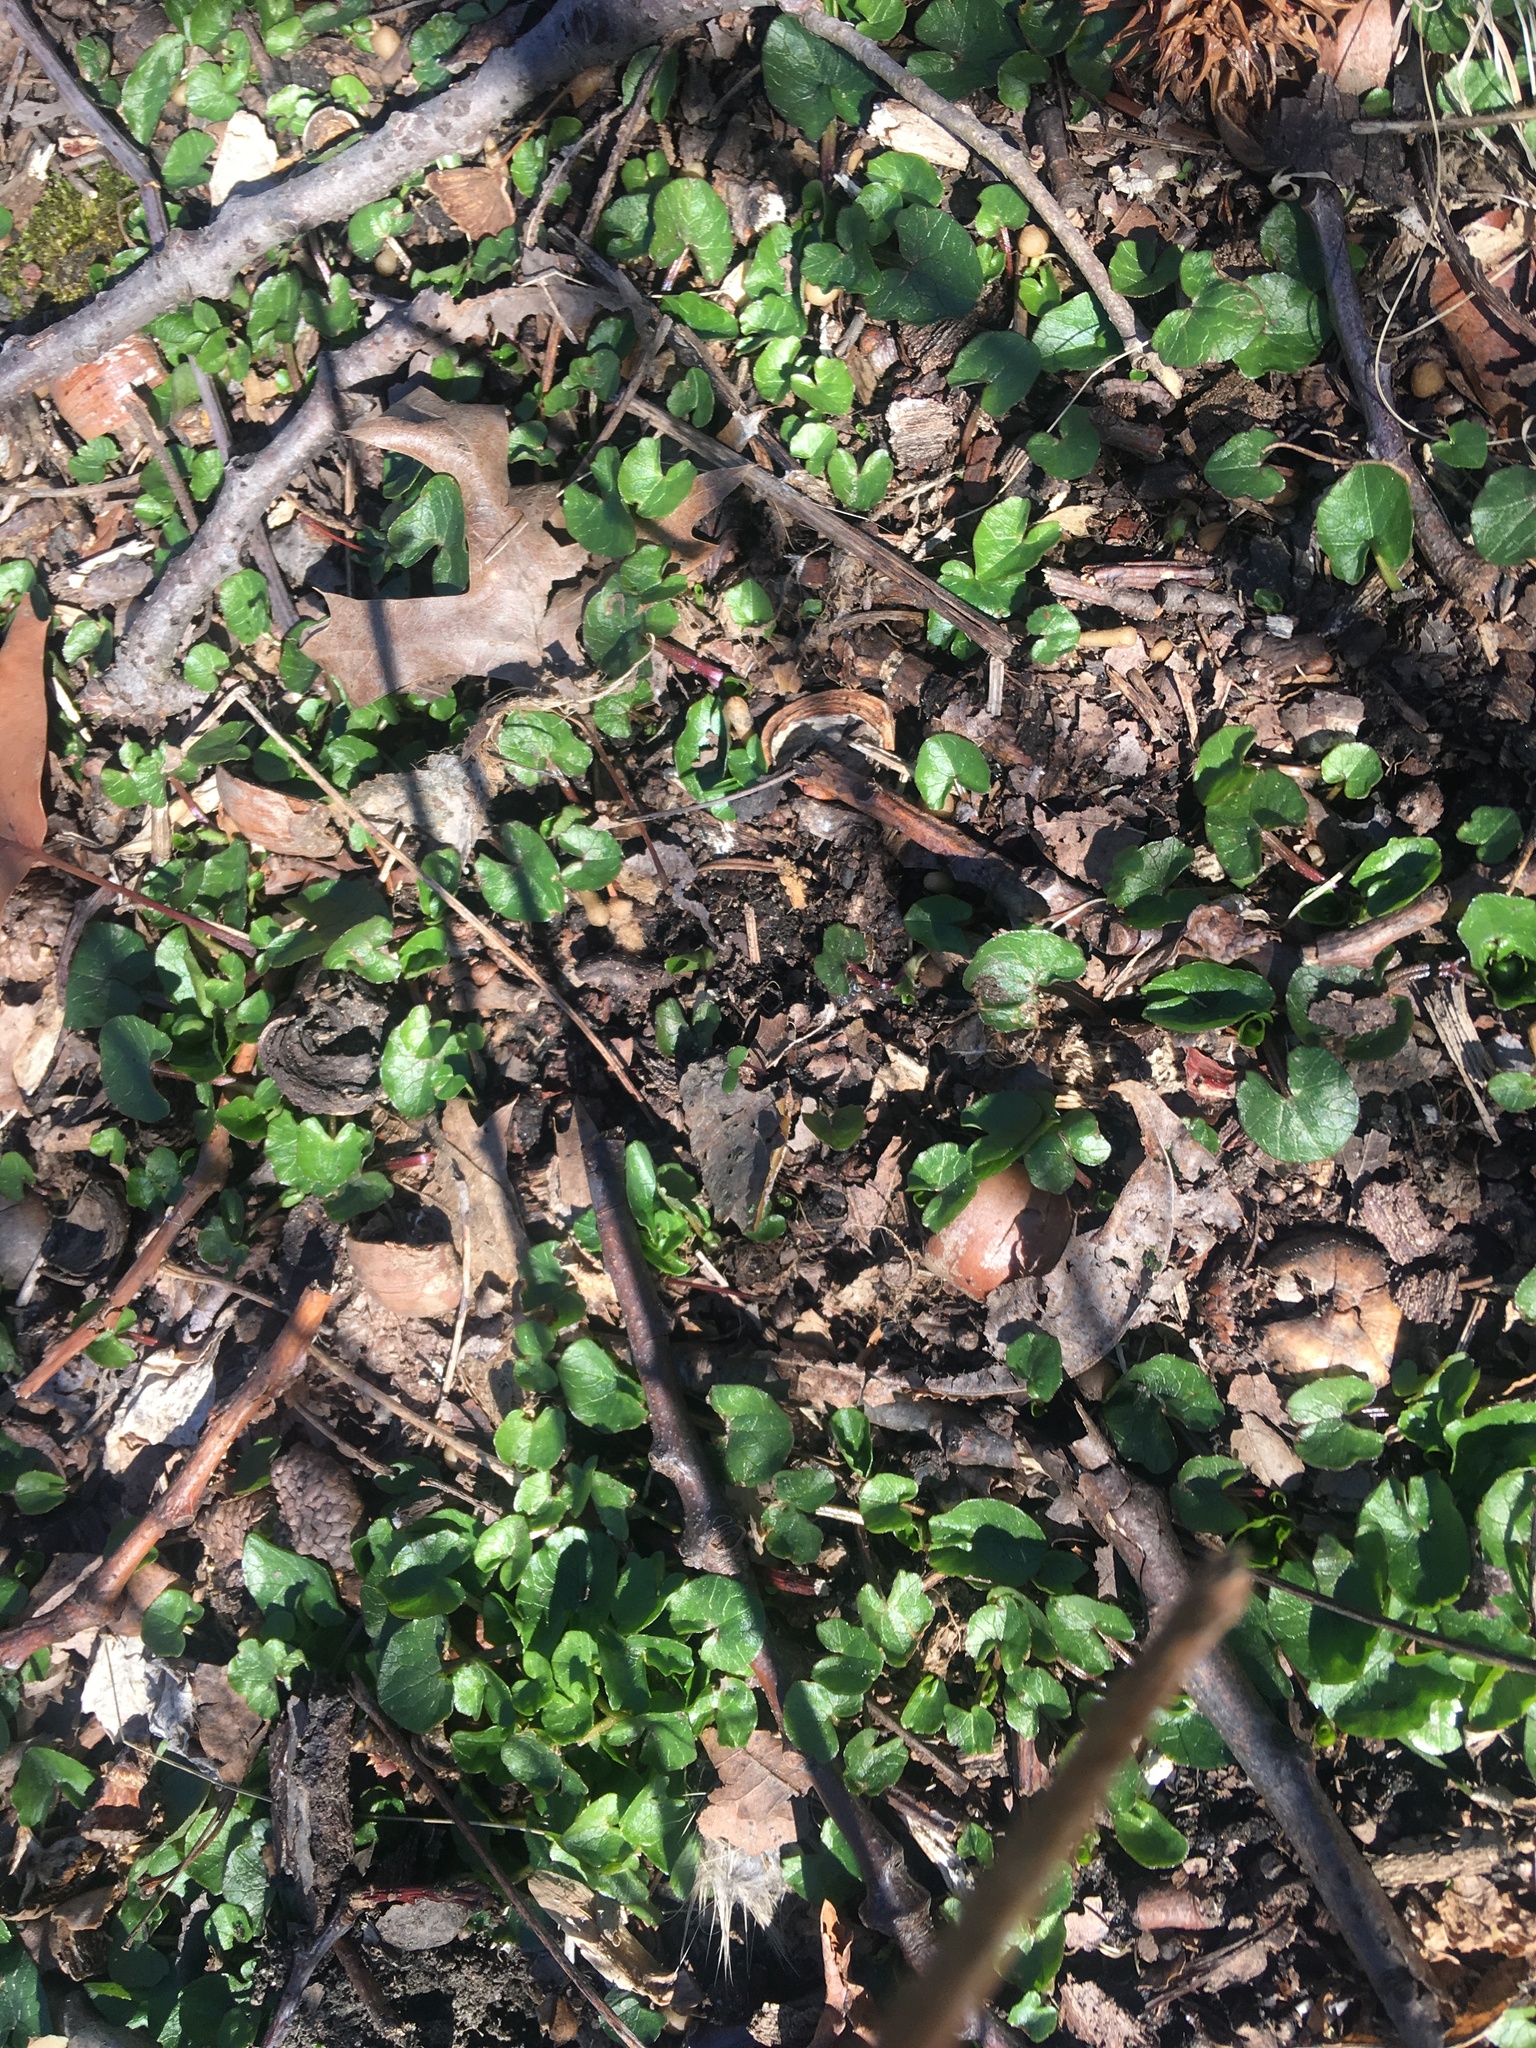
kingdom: Plantae
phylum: Tracheophyta
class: Magnoliopsida
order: Ranunculales
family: Ranunculaceae
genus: Ficaria
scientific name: Ficaria verna
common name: Lesser celandine
